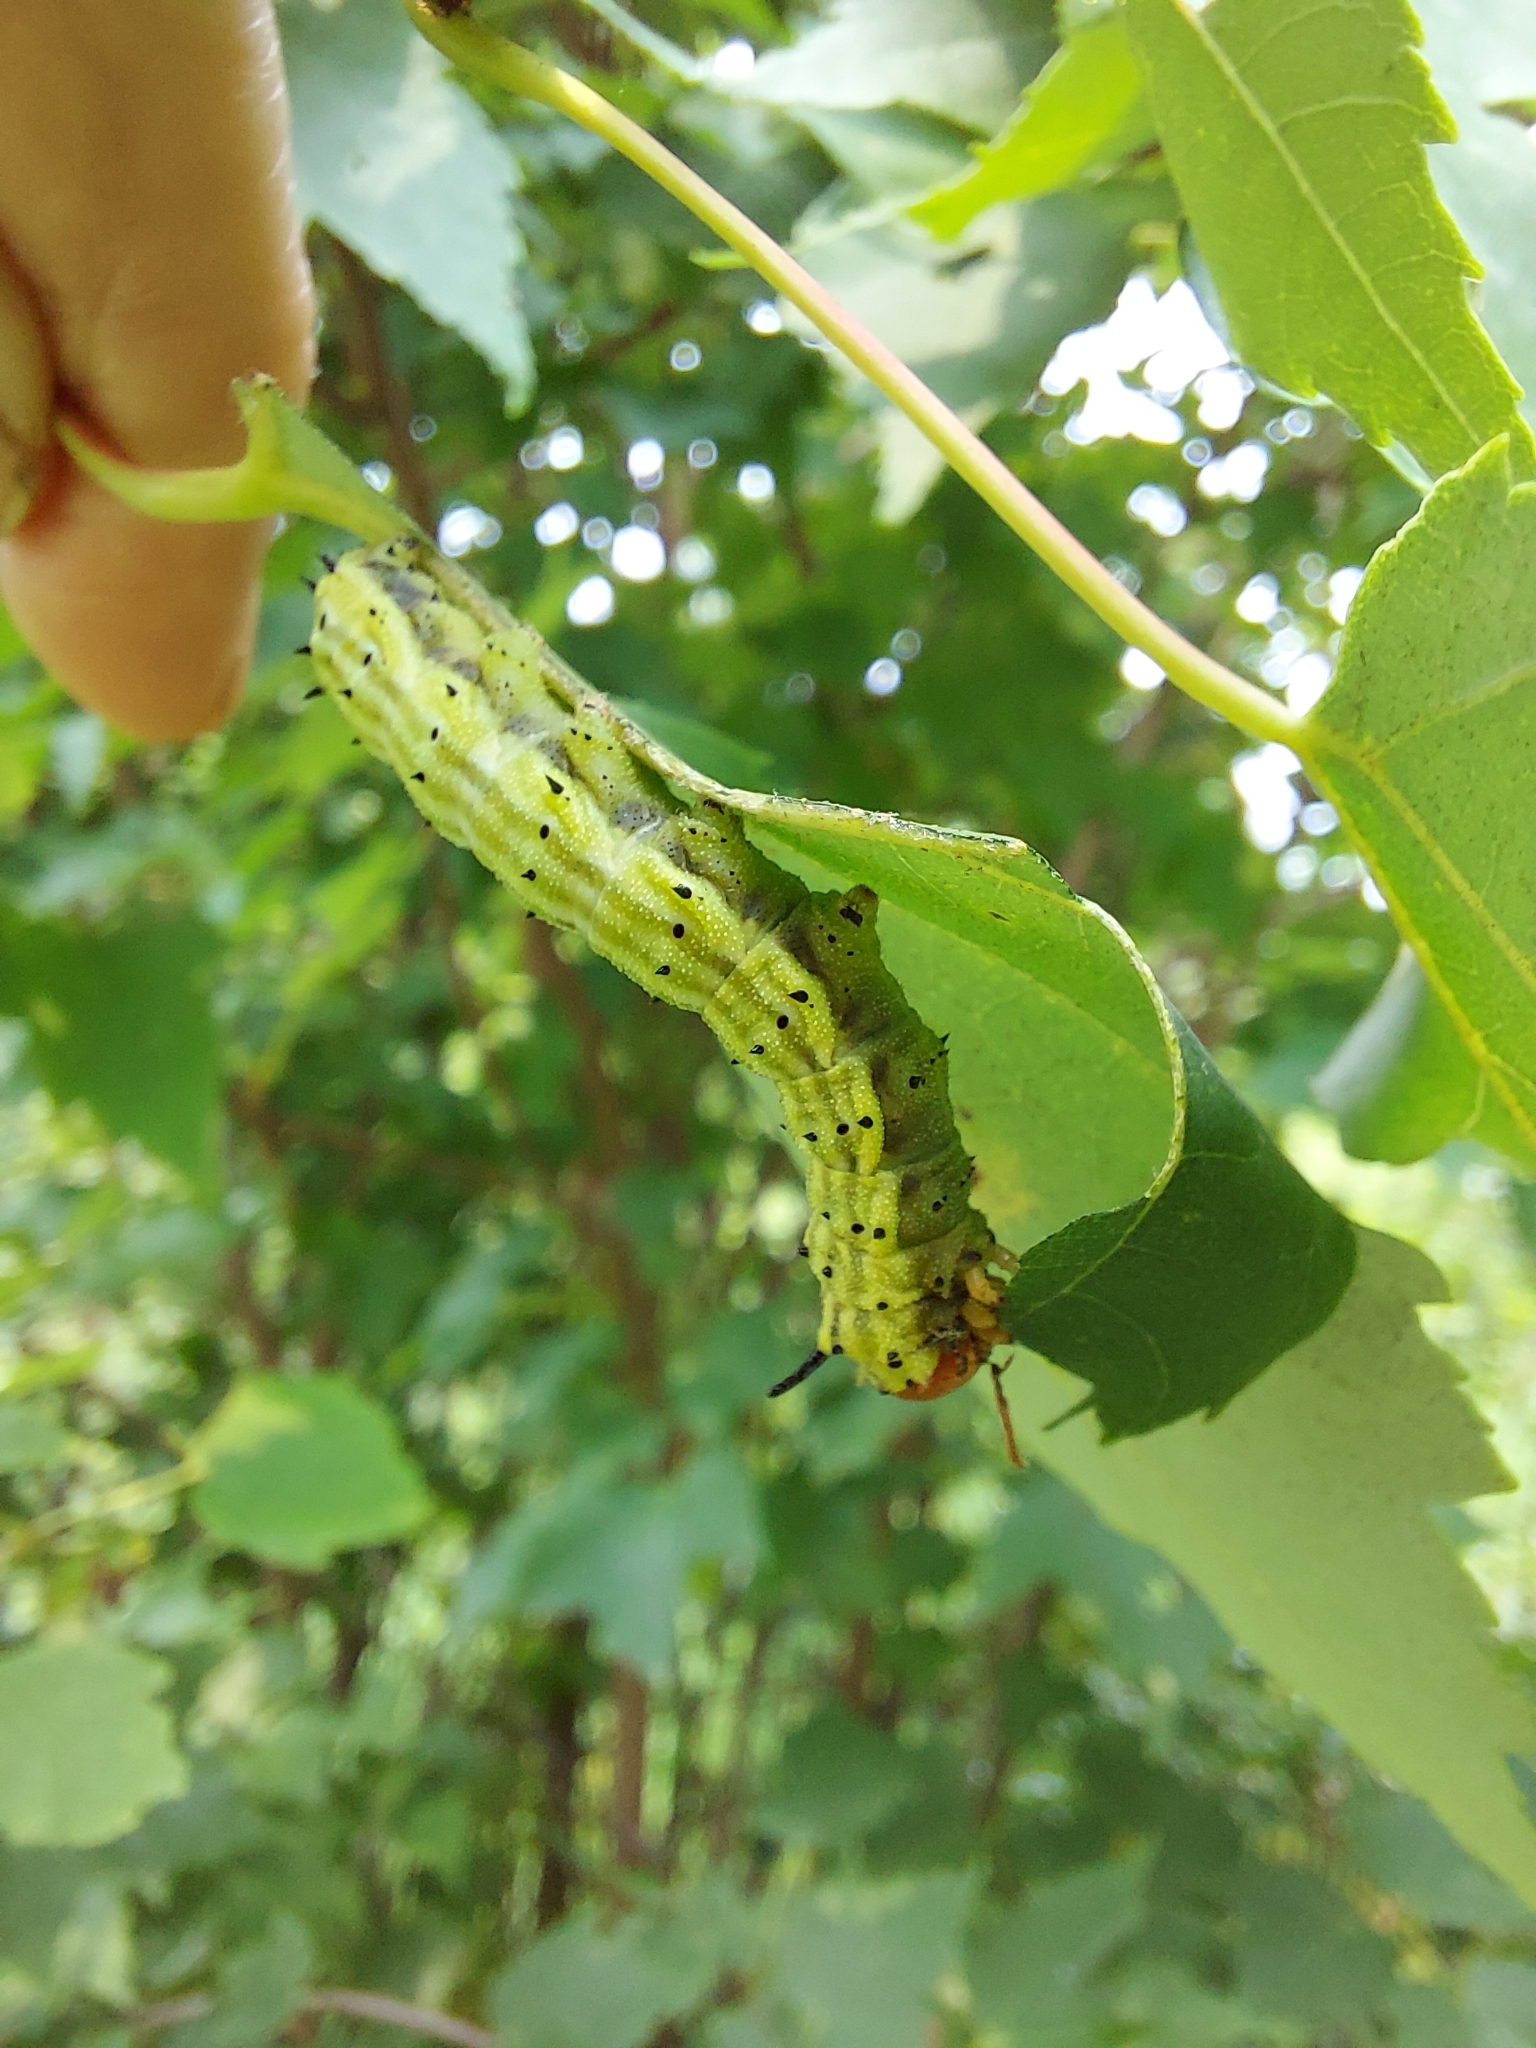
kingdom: Animalia
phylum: Arthropoda
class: Insecta
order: Lepidoptera
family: Saturniidae
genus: Dryocampa
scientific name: Dryocampa rubicunda
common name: Rosy maple moth
